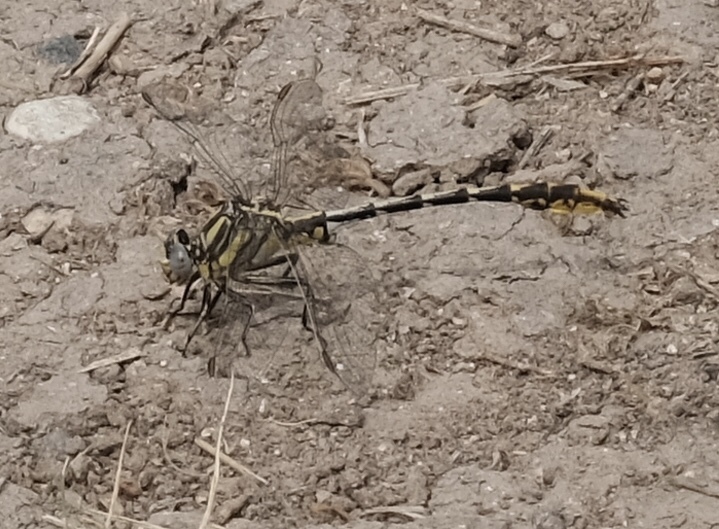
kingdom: Animalia
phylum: Arthropoda
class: Insecta
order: Odonata
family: Gomphidae
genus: Phanogomphus
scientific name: Phanogomphus militaris
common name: Sulphur-tipped clubtail
